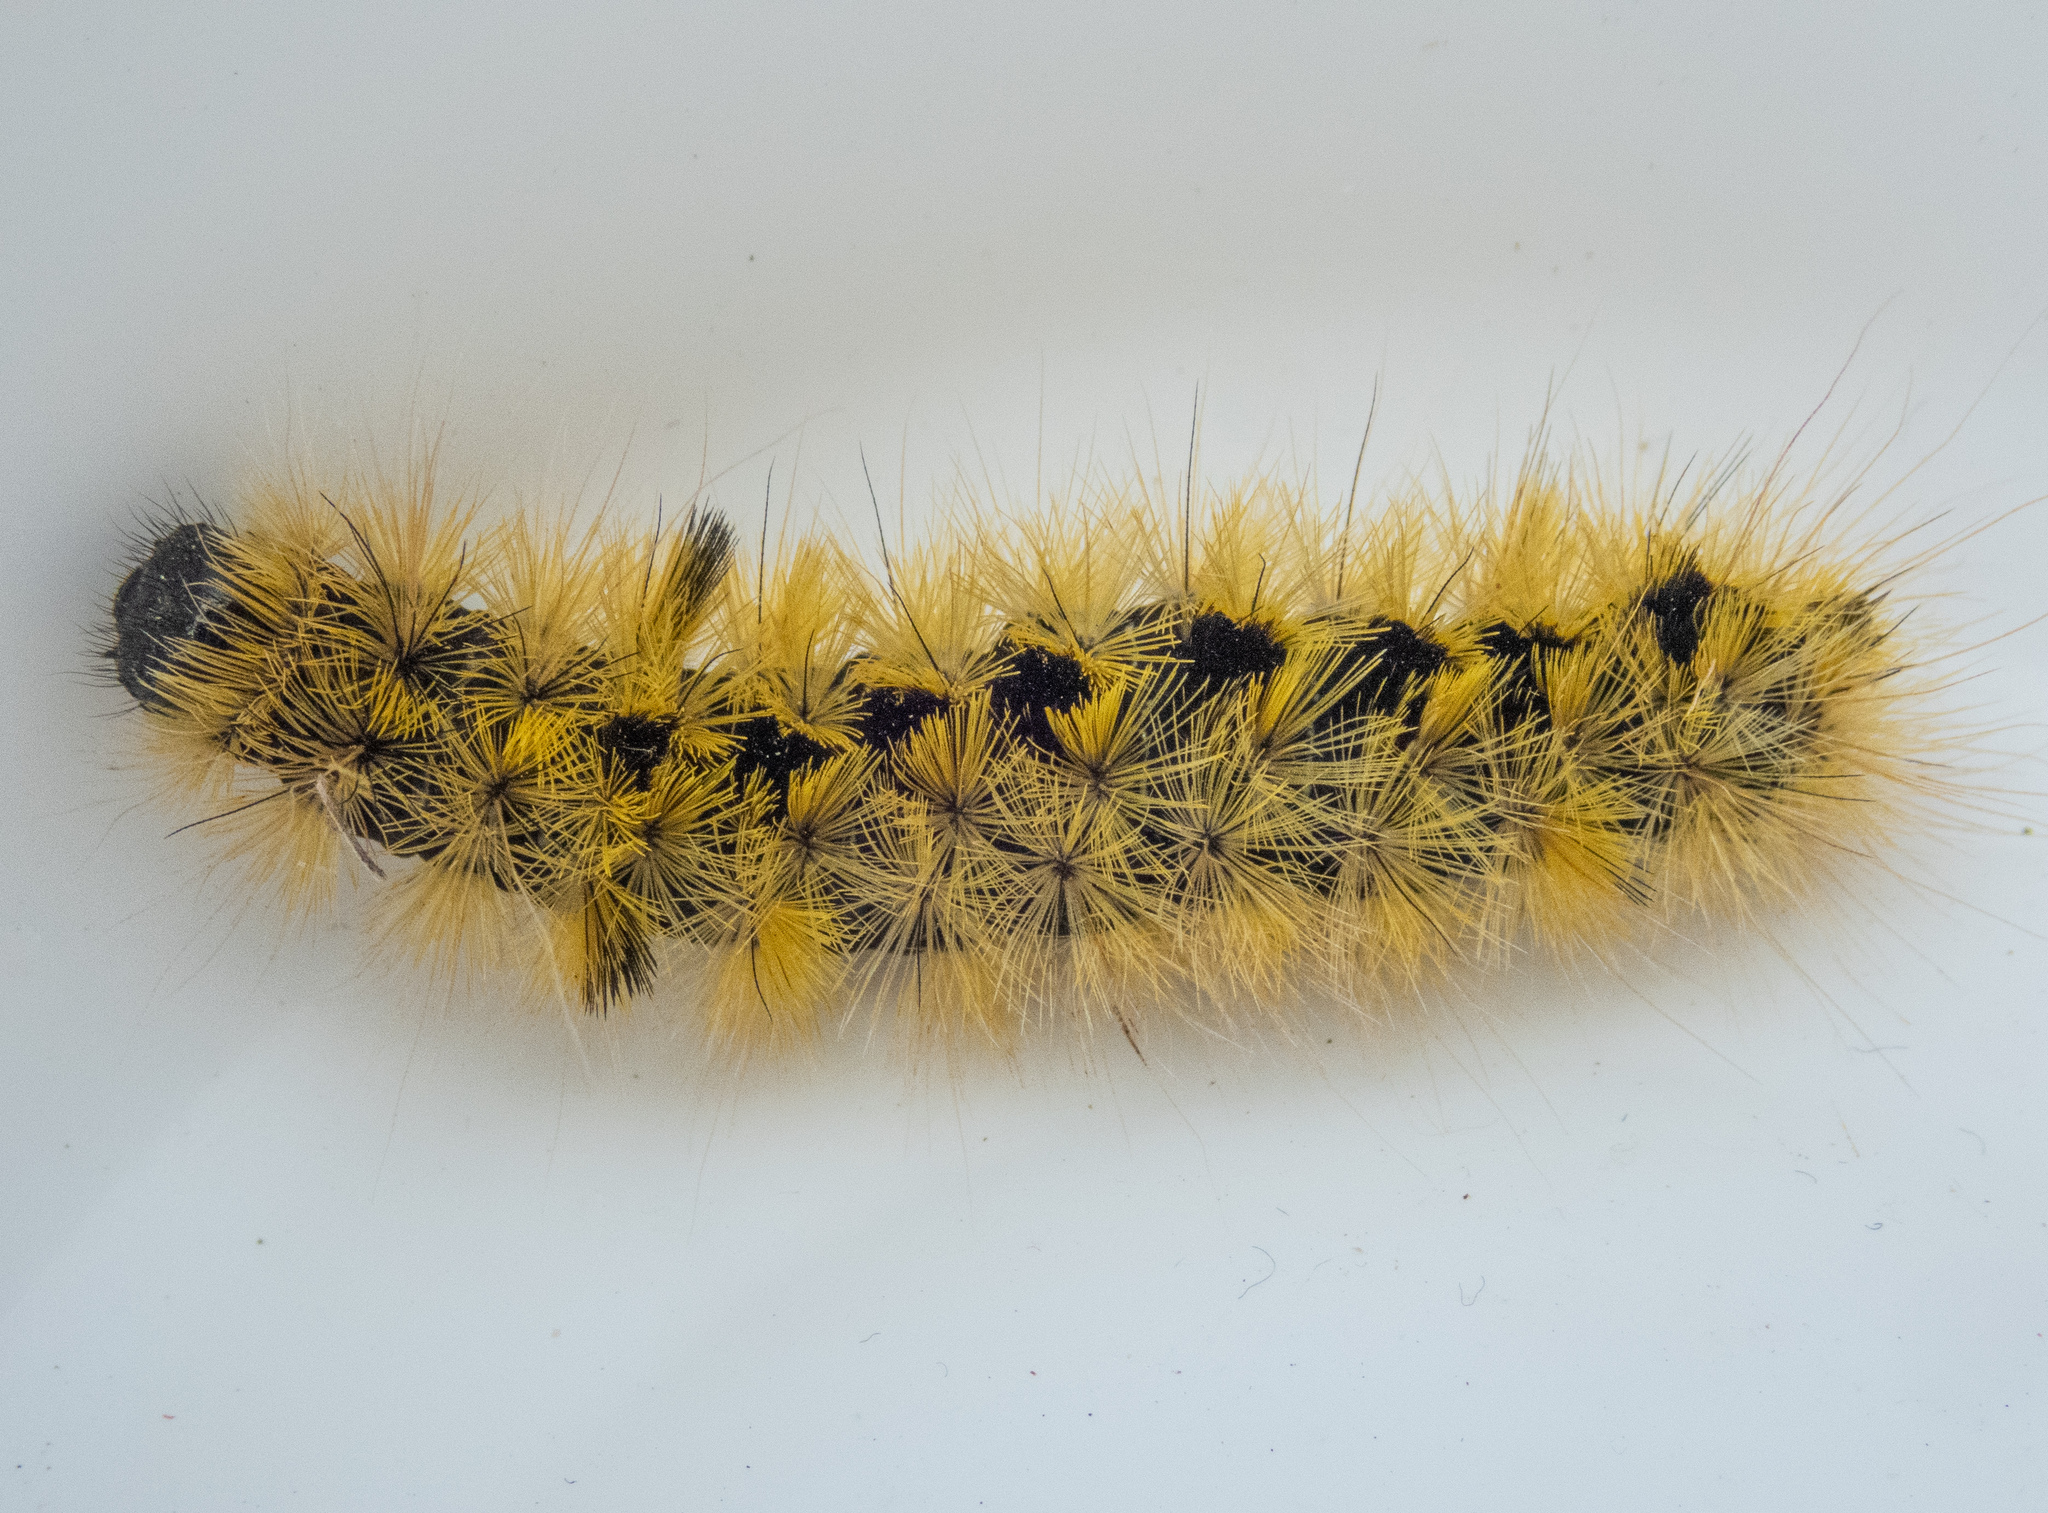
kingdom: Animalia
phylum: Arthropoda
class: Insecta
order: Lepidoptera
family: Erebidae
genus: Lophocampa
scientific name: Lophocampa argentata
